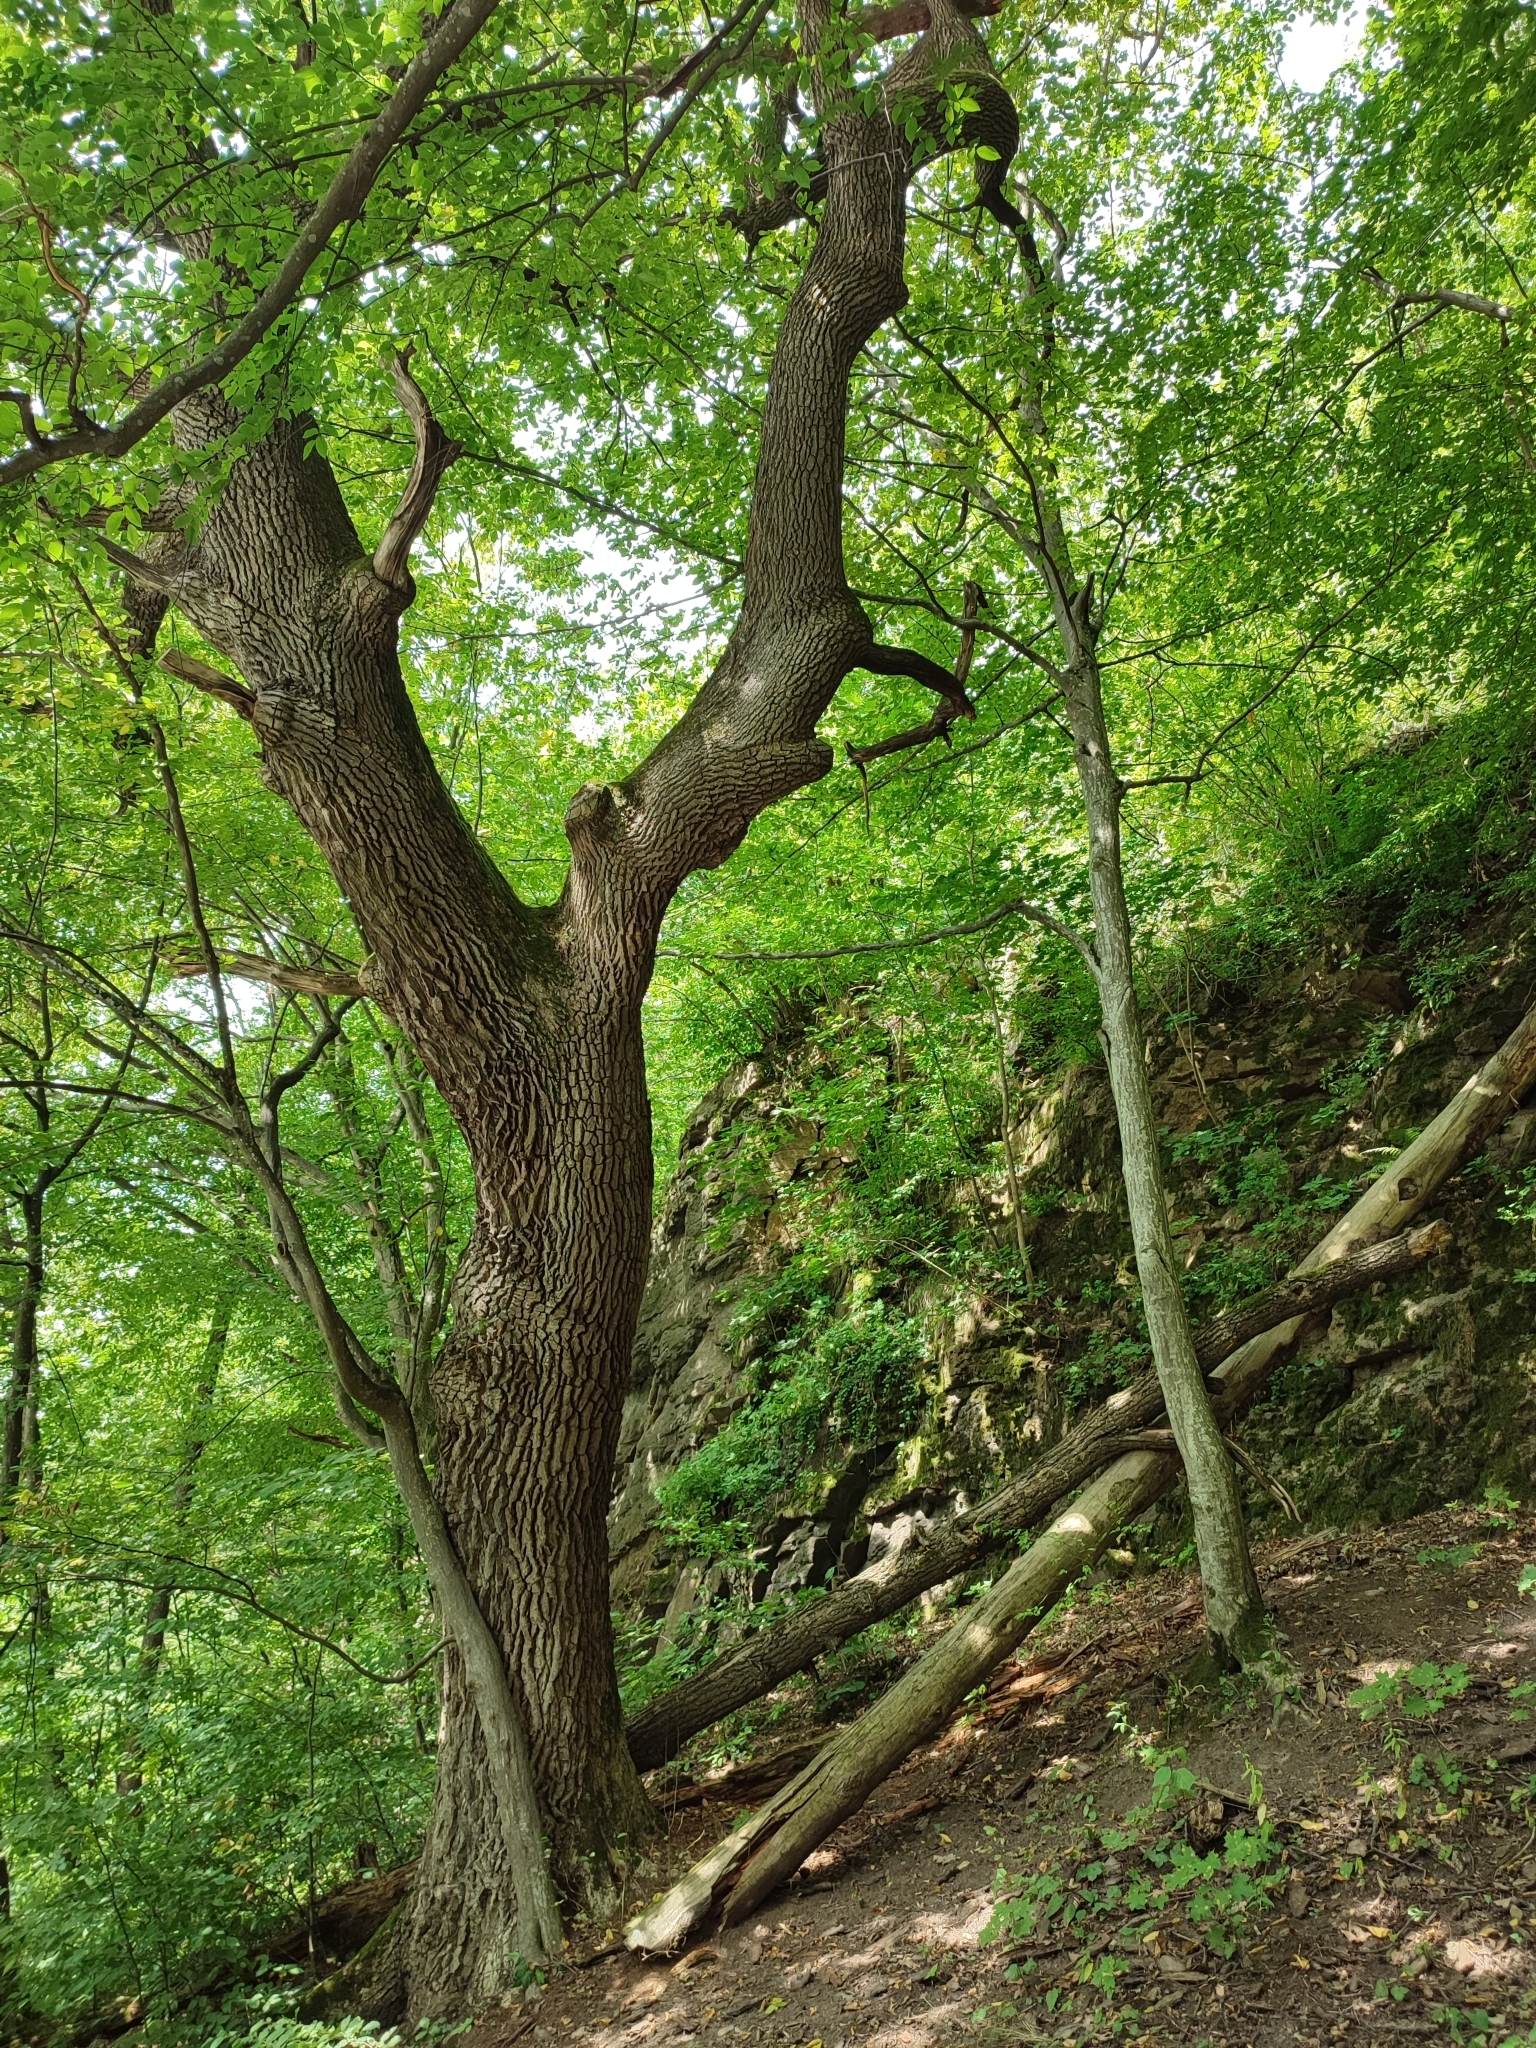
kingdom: Plantae
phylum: Tracheophyta
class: Magnoliopsida
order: Fagales
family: Fagaceae
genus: Quercus
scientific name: Quercus robur
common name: Pedunculate oak
